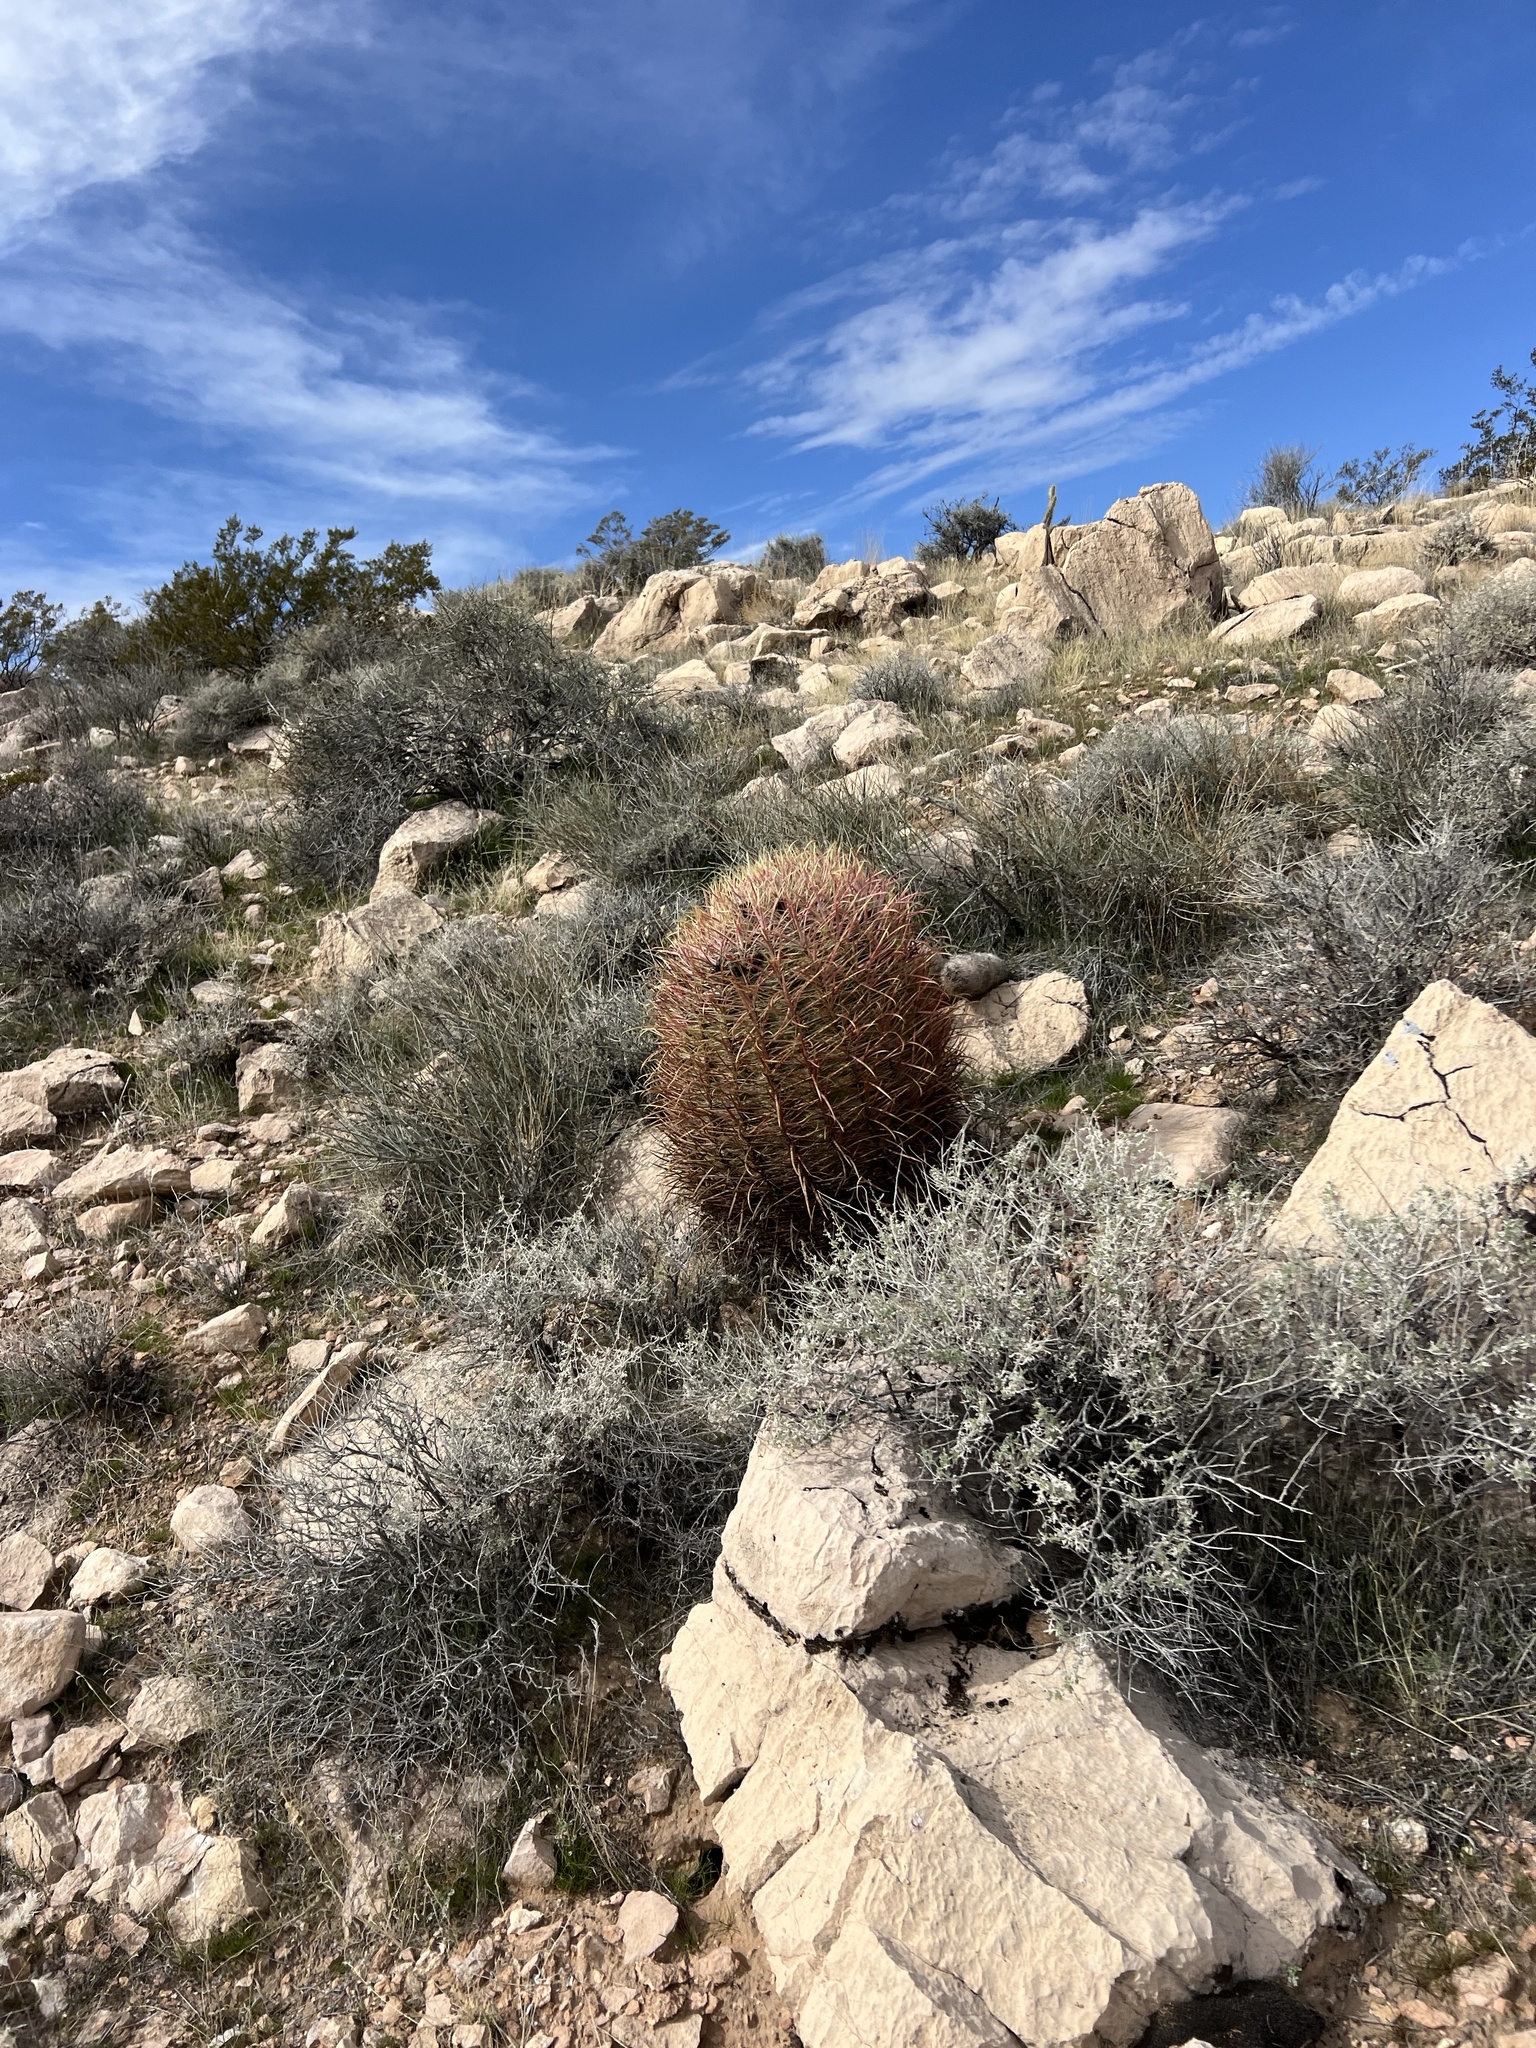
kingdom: Plantae
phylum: Tracheophyta
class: Magnoliopsida
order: Caryophyllales
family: Cactaceae
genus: Ferocactus
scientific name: Ferocactus cylindraceus
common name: California barrel cactus
